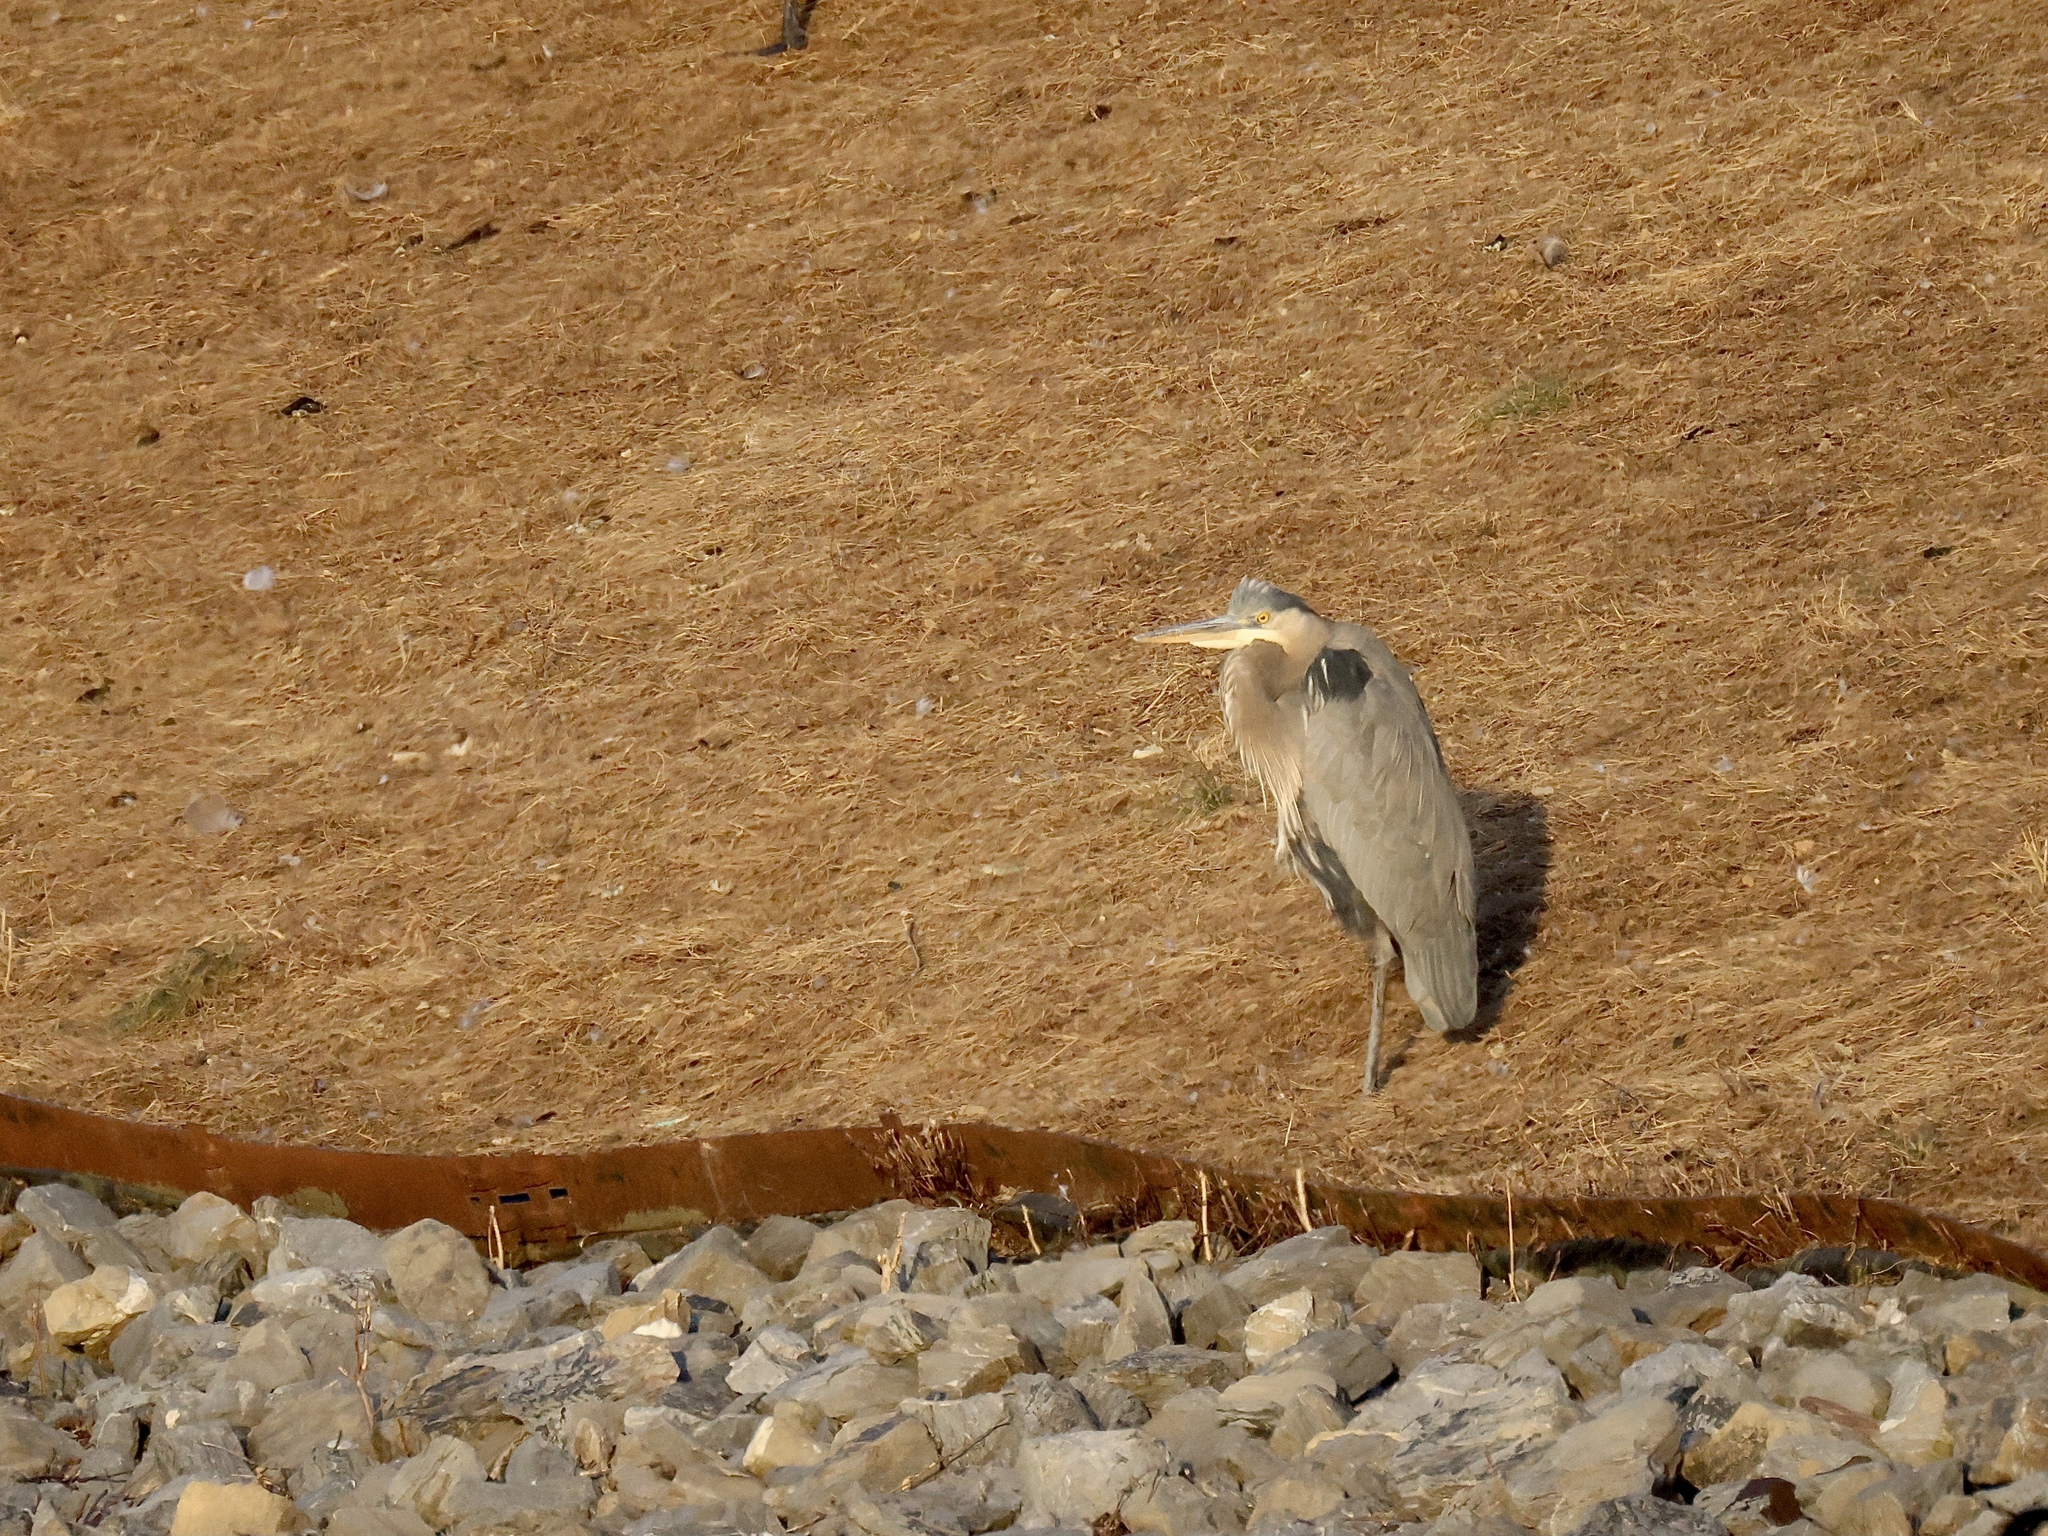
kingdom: Animalia
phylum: Chordata
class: Aves
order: Pelecaniformes
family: Ardeidae
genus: Ardea
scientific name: Ardea herodias
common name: Great blue heron
